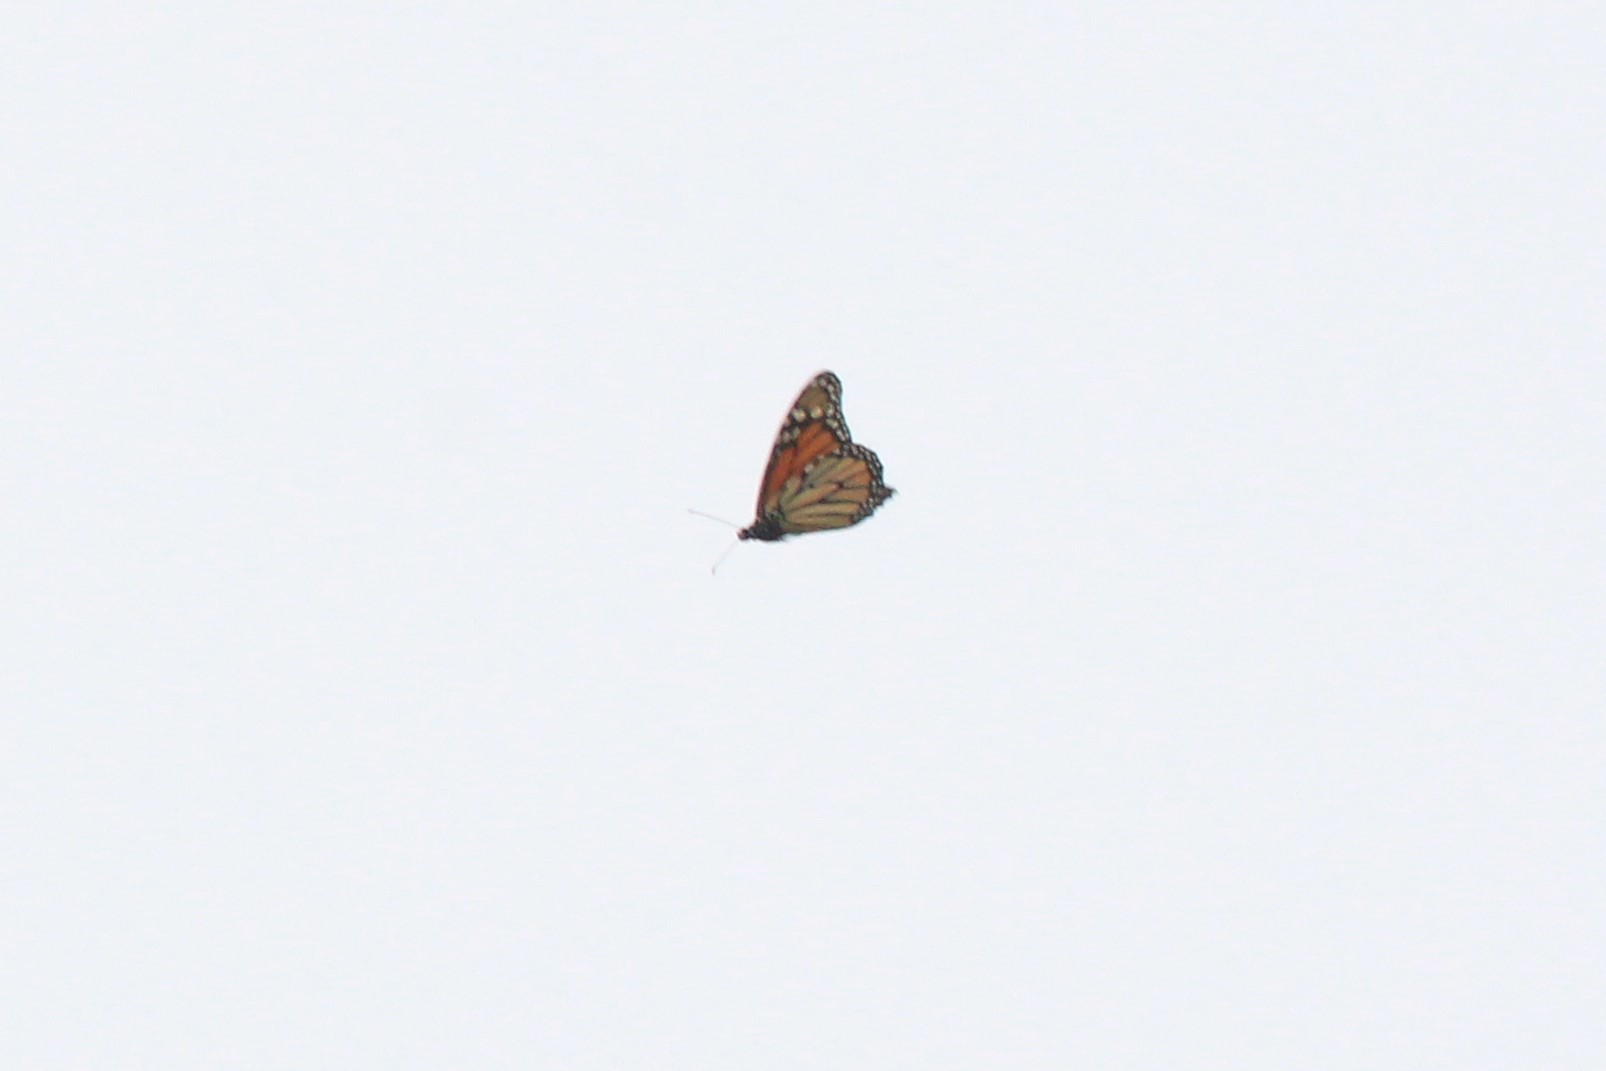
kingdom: Animalia
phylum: Arthropoda
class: Insecta
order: Lepidoptera
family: Nymphalidae
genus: Danaus
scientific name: Danaus plexippus
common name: Monarch
